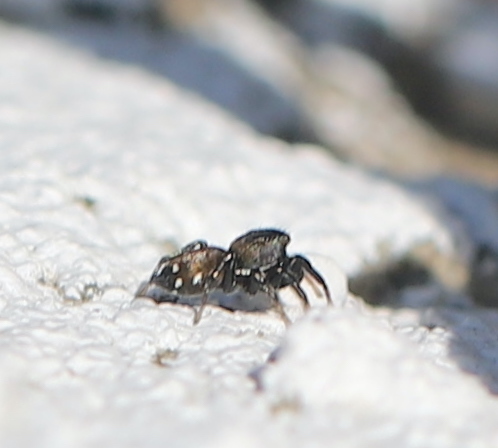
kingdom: Animalia
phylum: Arthropoda
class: Arachnida
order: Araneae
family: Salticidae
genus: Heliophanus
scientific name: Heliophanus kochii
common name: Sun jumping spider
